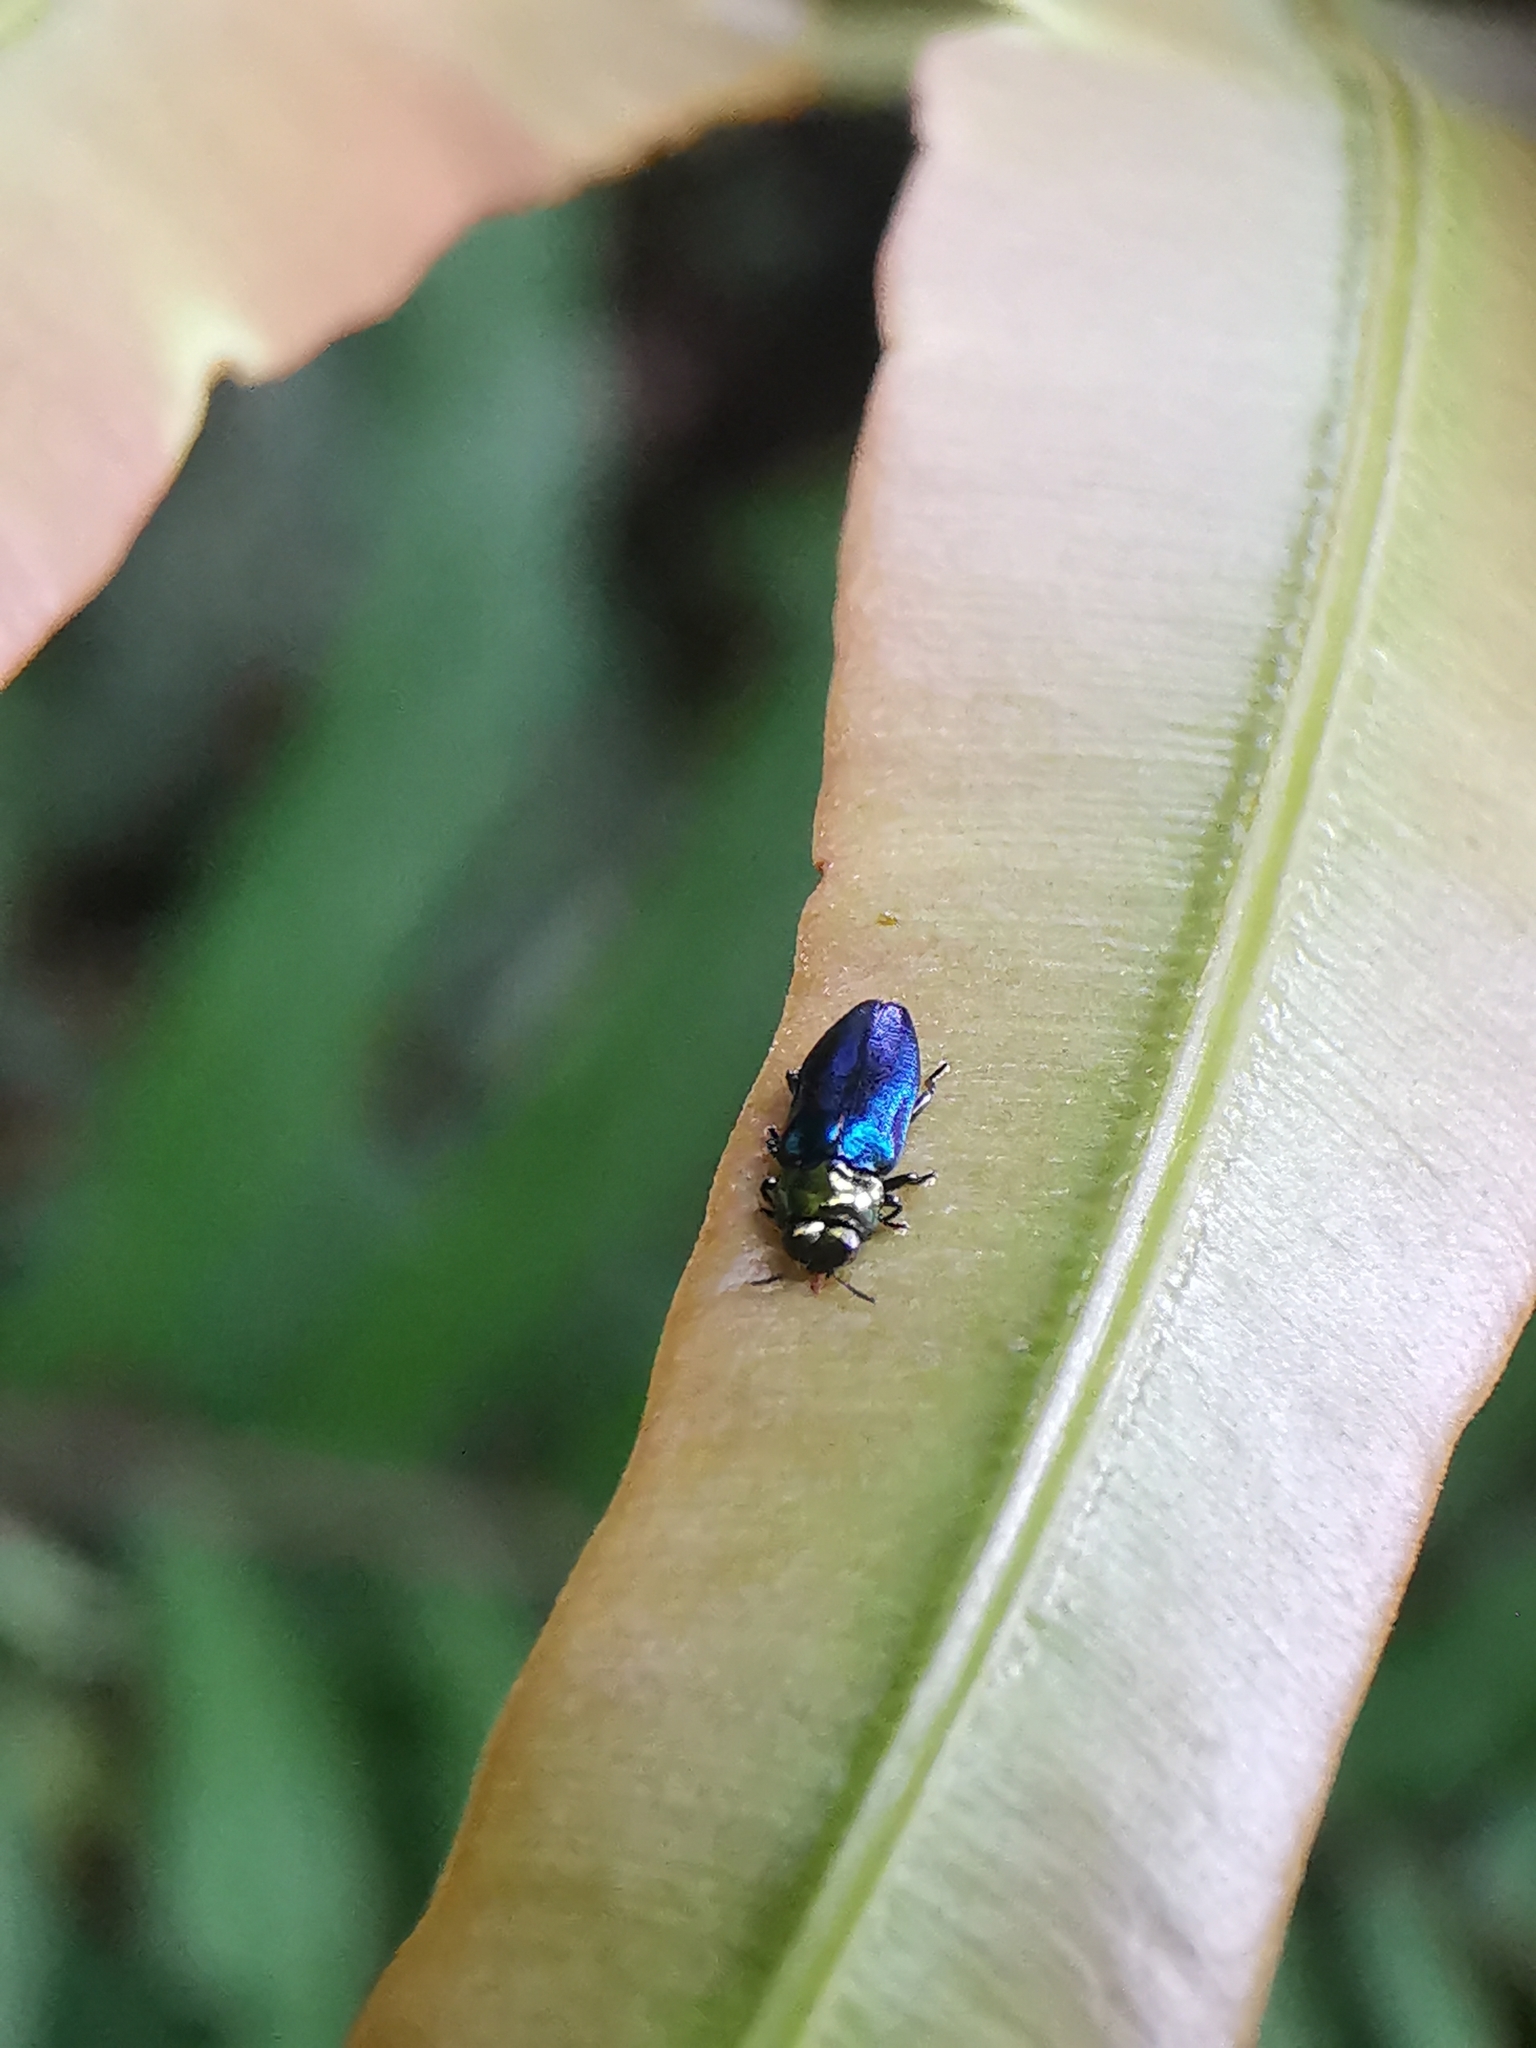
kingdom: Animalia
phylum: Arthropoda
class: Insecta
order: Coleoptera
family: Buprestidae
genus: Endelus
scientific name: Endelus cupido
